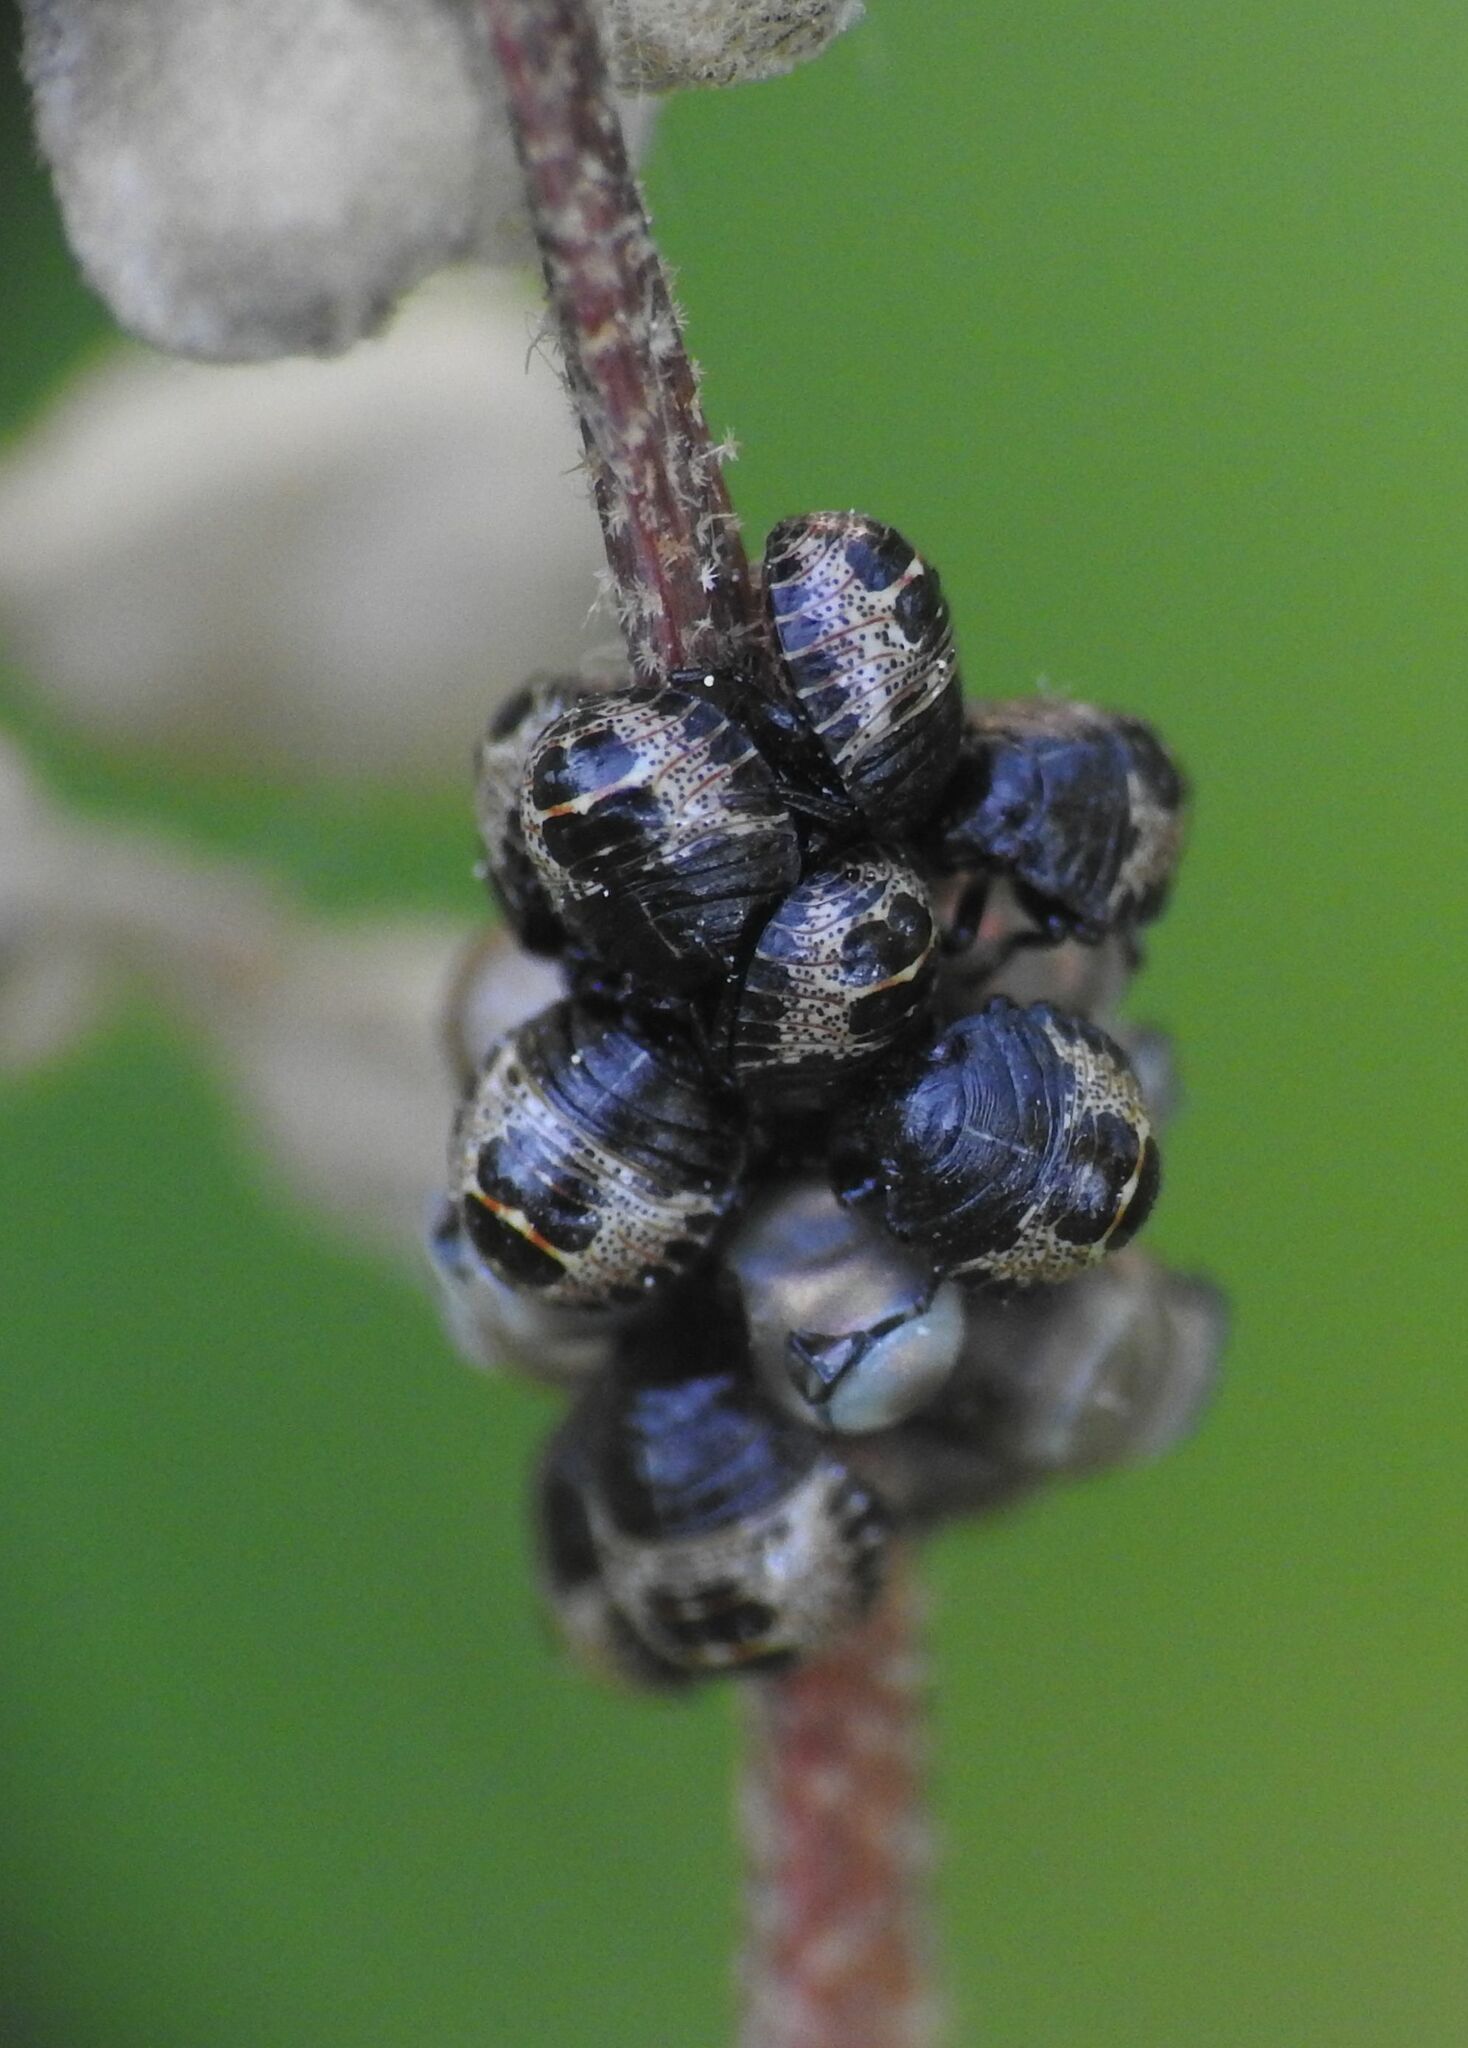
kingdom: Animalia
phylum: Arthropoda
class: Insecta
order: Hemiptera
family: Pentatomidae
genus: Rhaphigaster
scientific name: Rhaphigaster nebulosa
